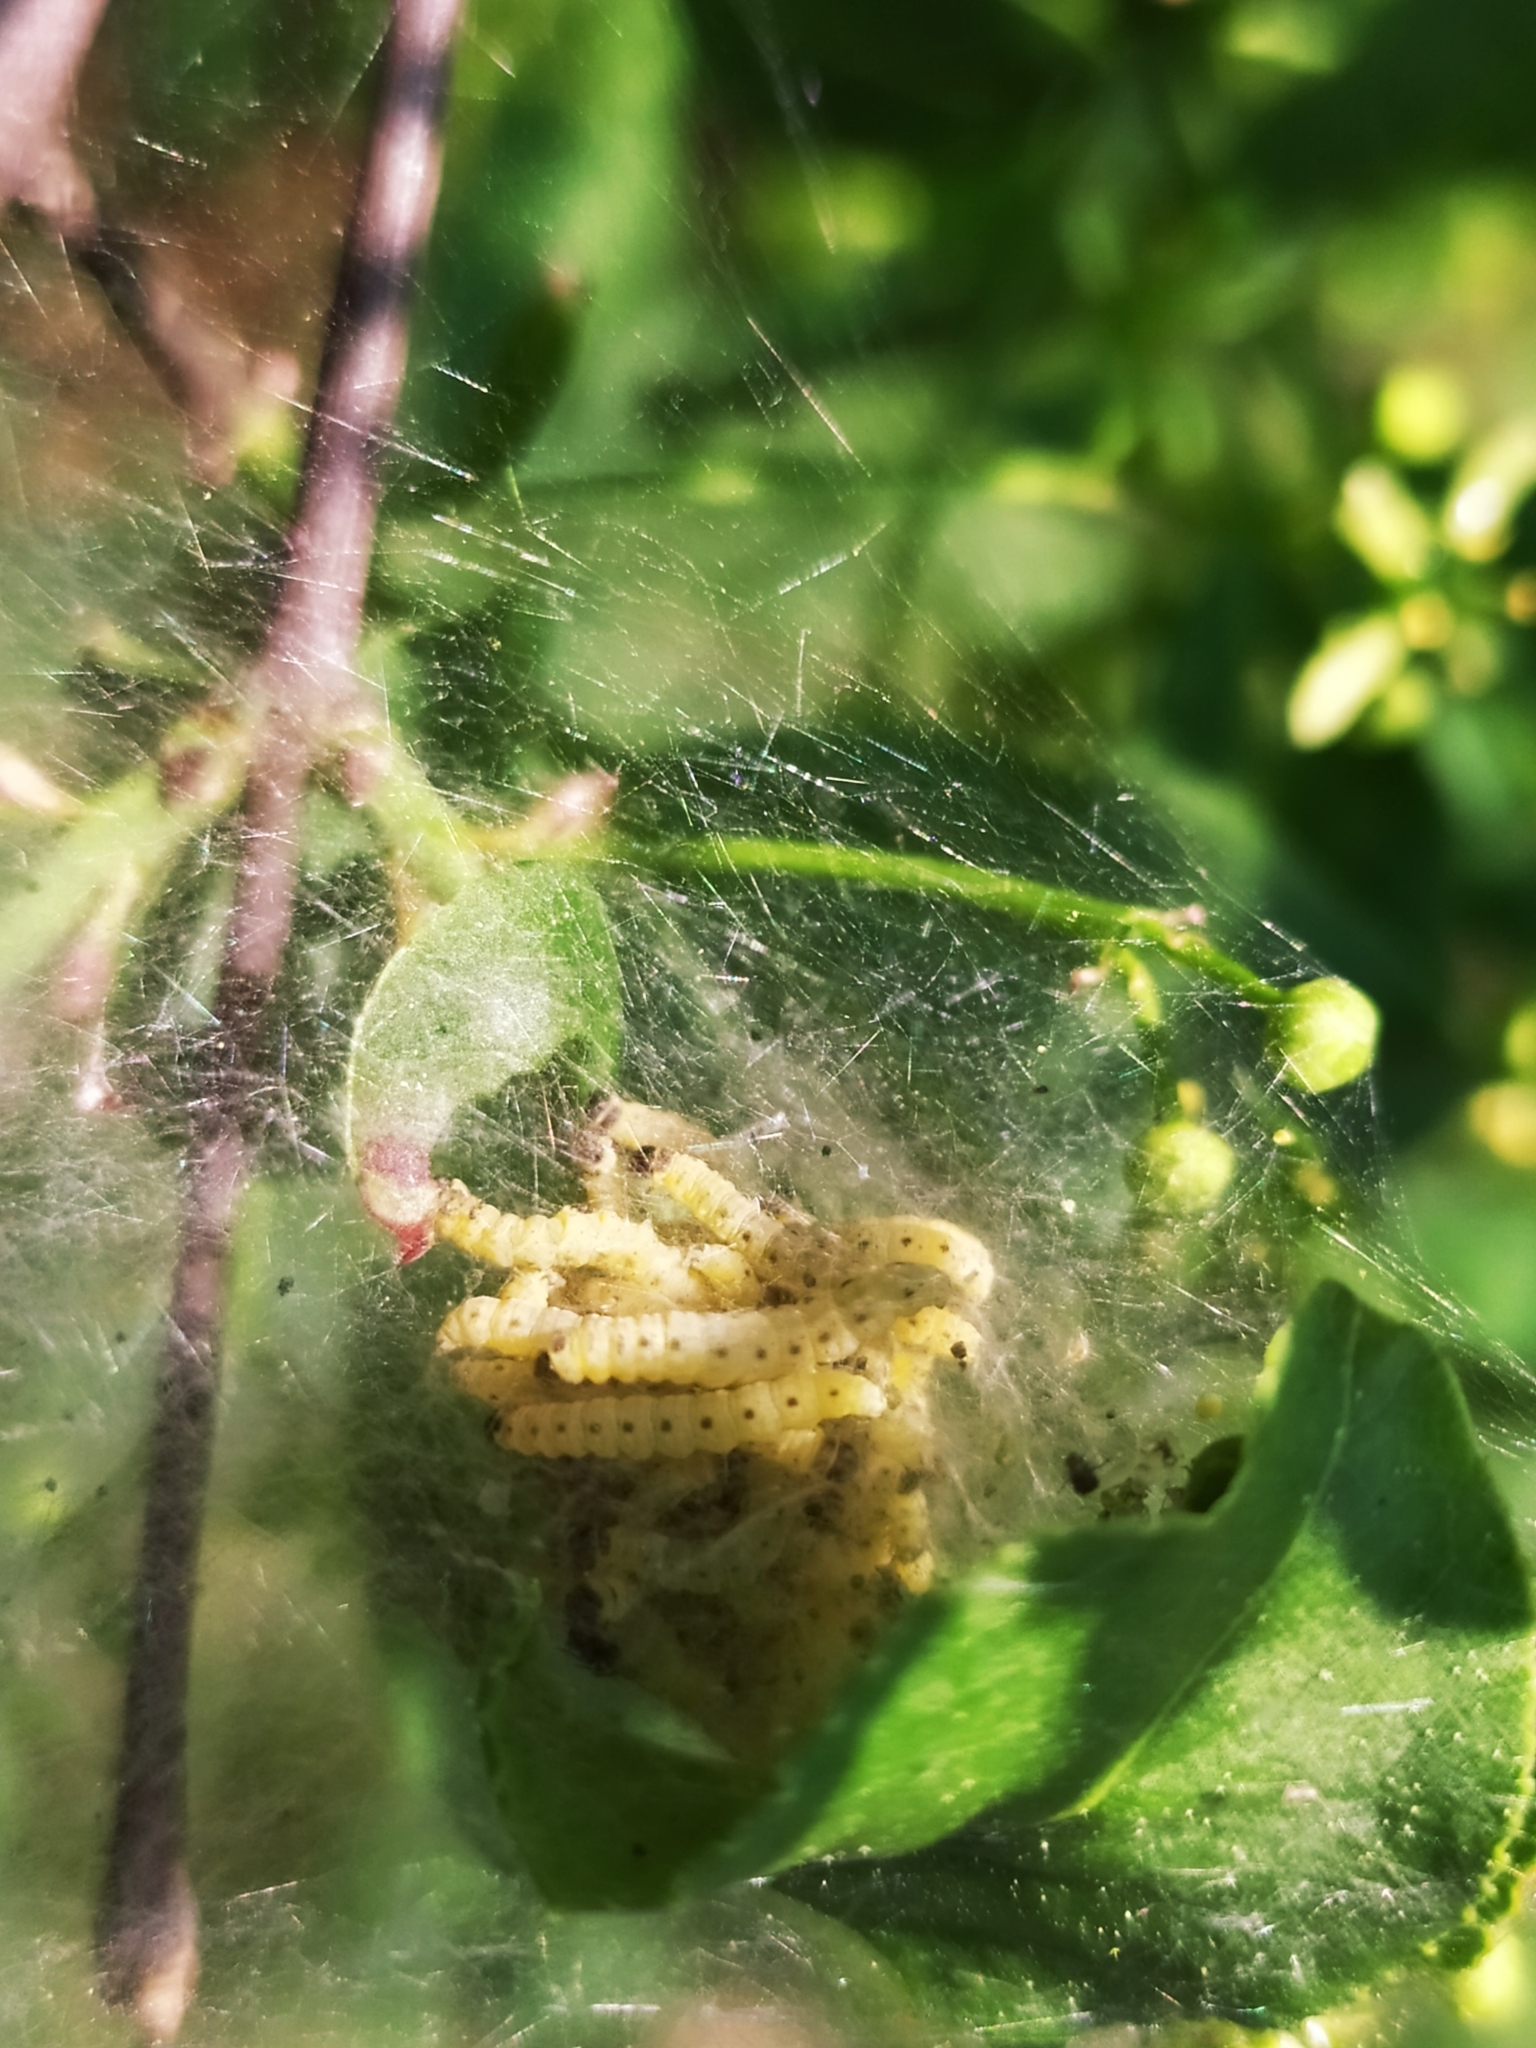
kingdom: Animalia
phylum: Arthropoda
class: Insecta
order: Lepidoptera
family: Yponomeutidae
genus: Yponomeuta
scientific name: Yponomeuta cagnagellus
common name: Spindle ermine
